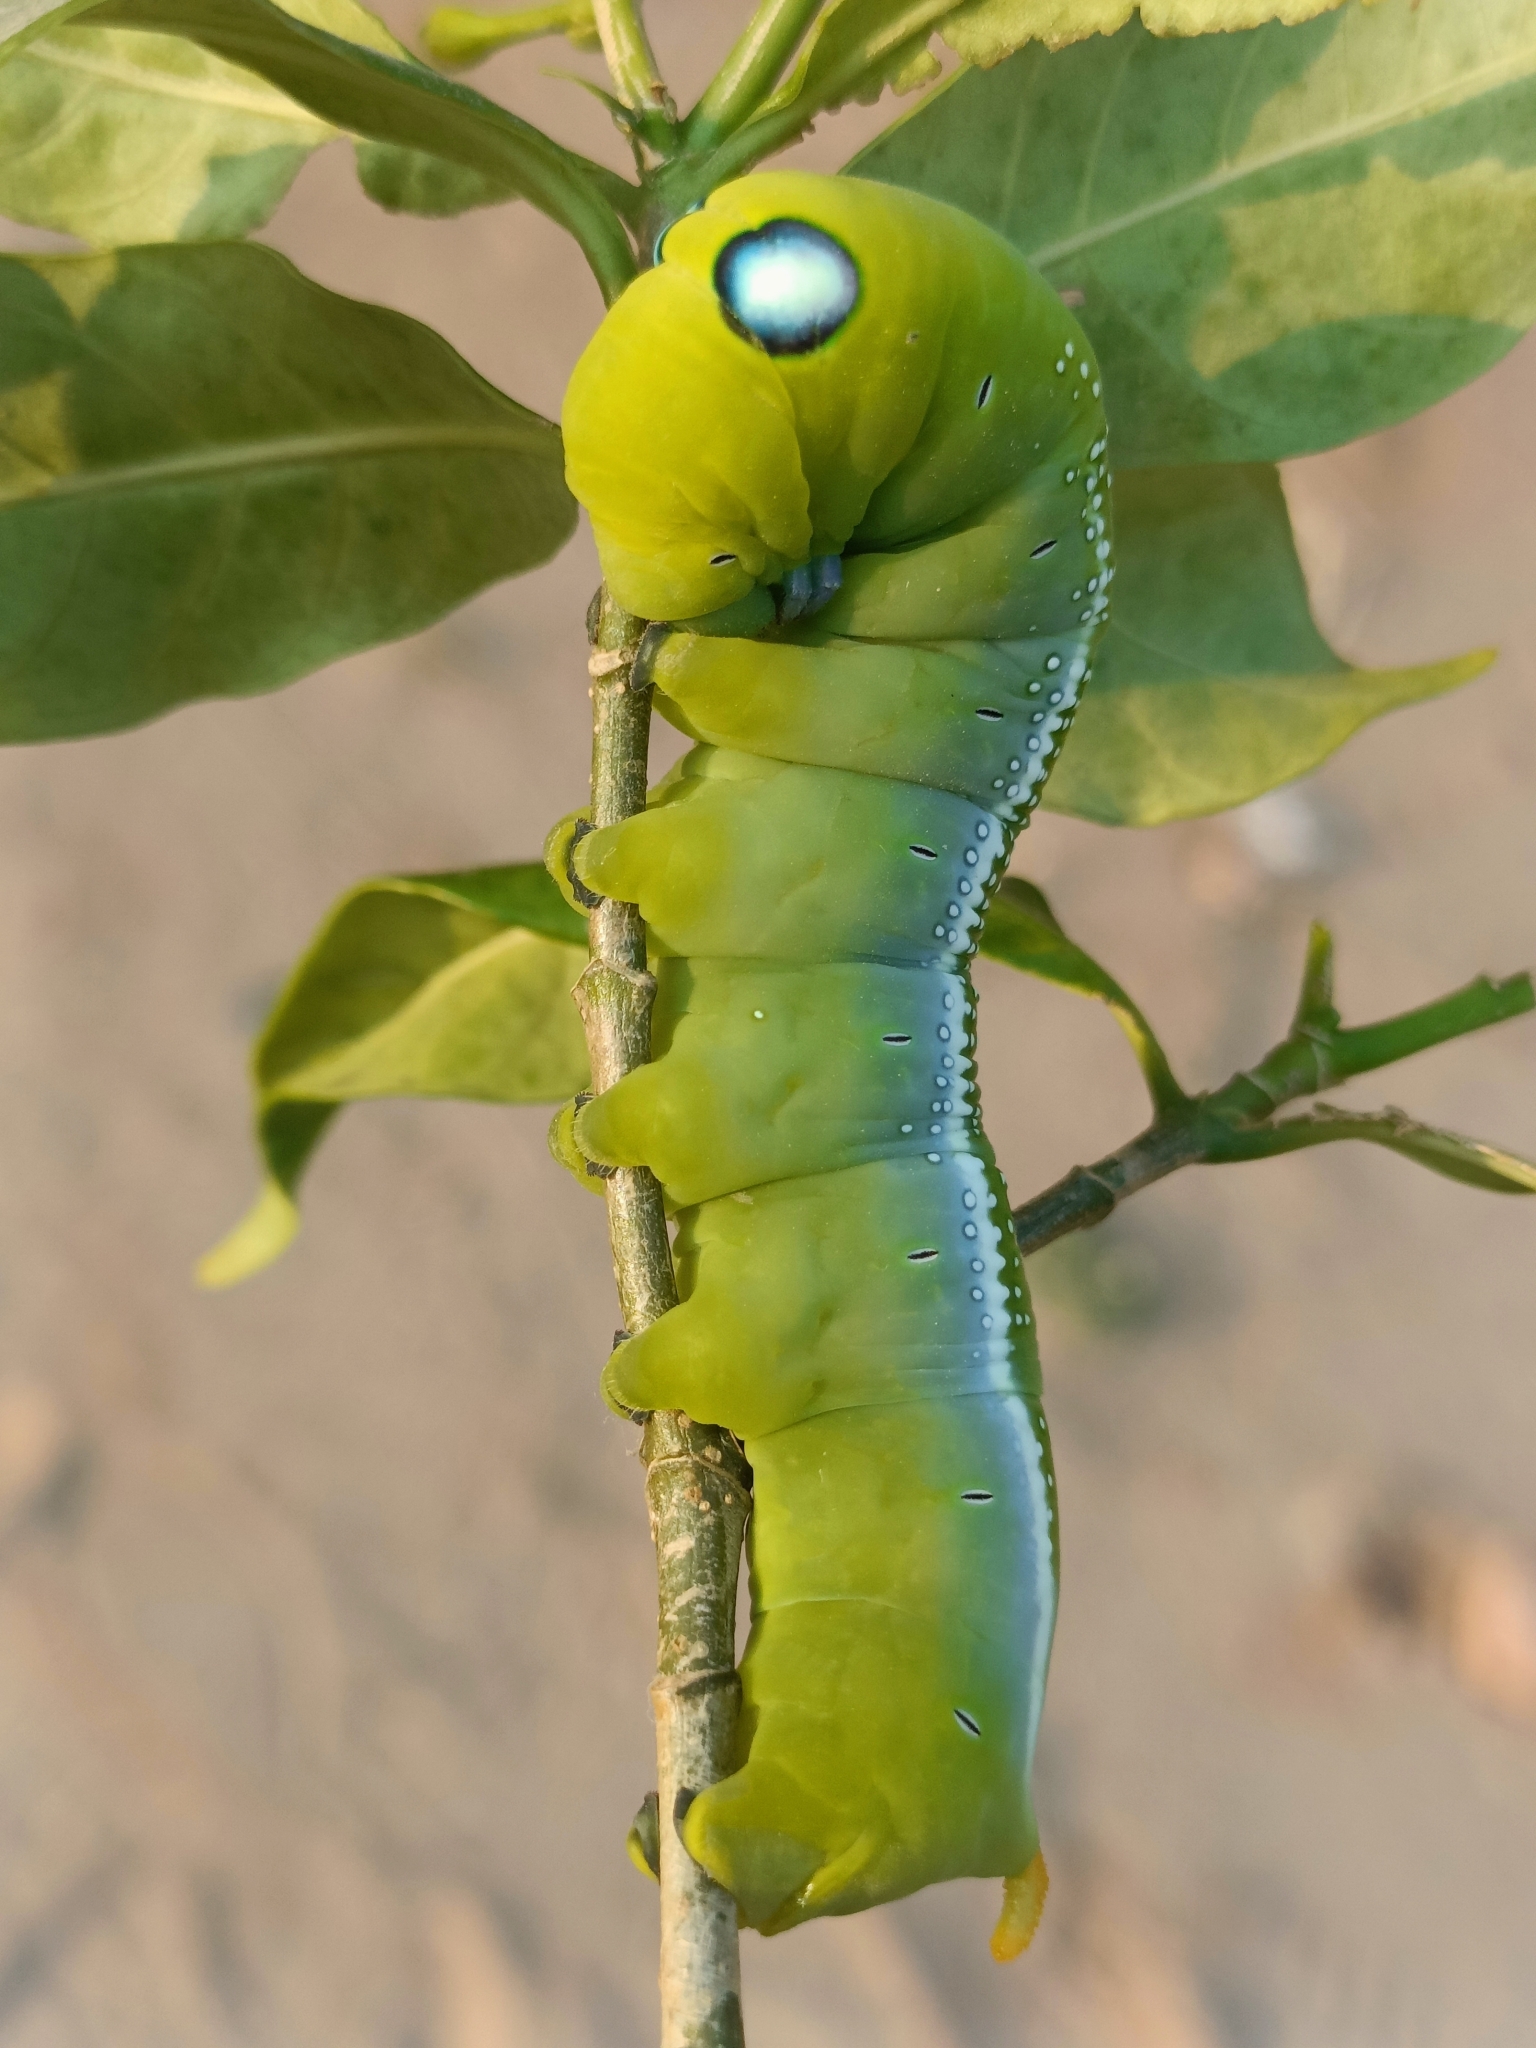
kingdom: Animalia
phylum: Arthropoda
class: Insecta
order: Lepidoptera
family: Sphingidae
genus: Daphnis
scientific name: Daphnis nerii
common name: Oleander hawk-moth
